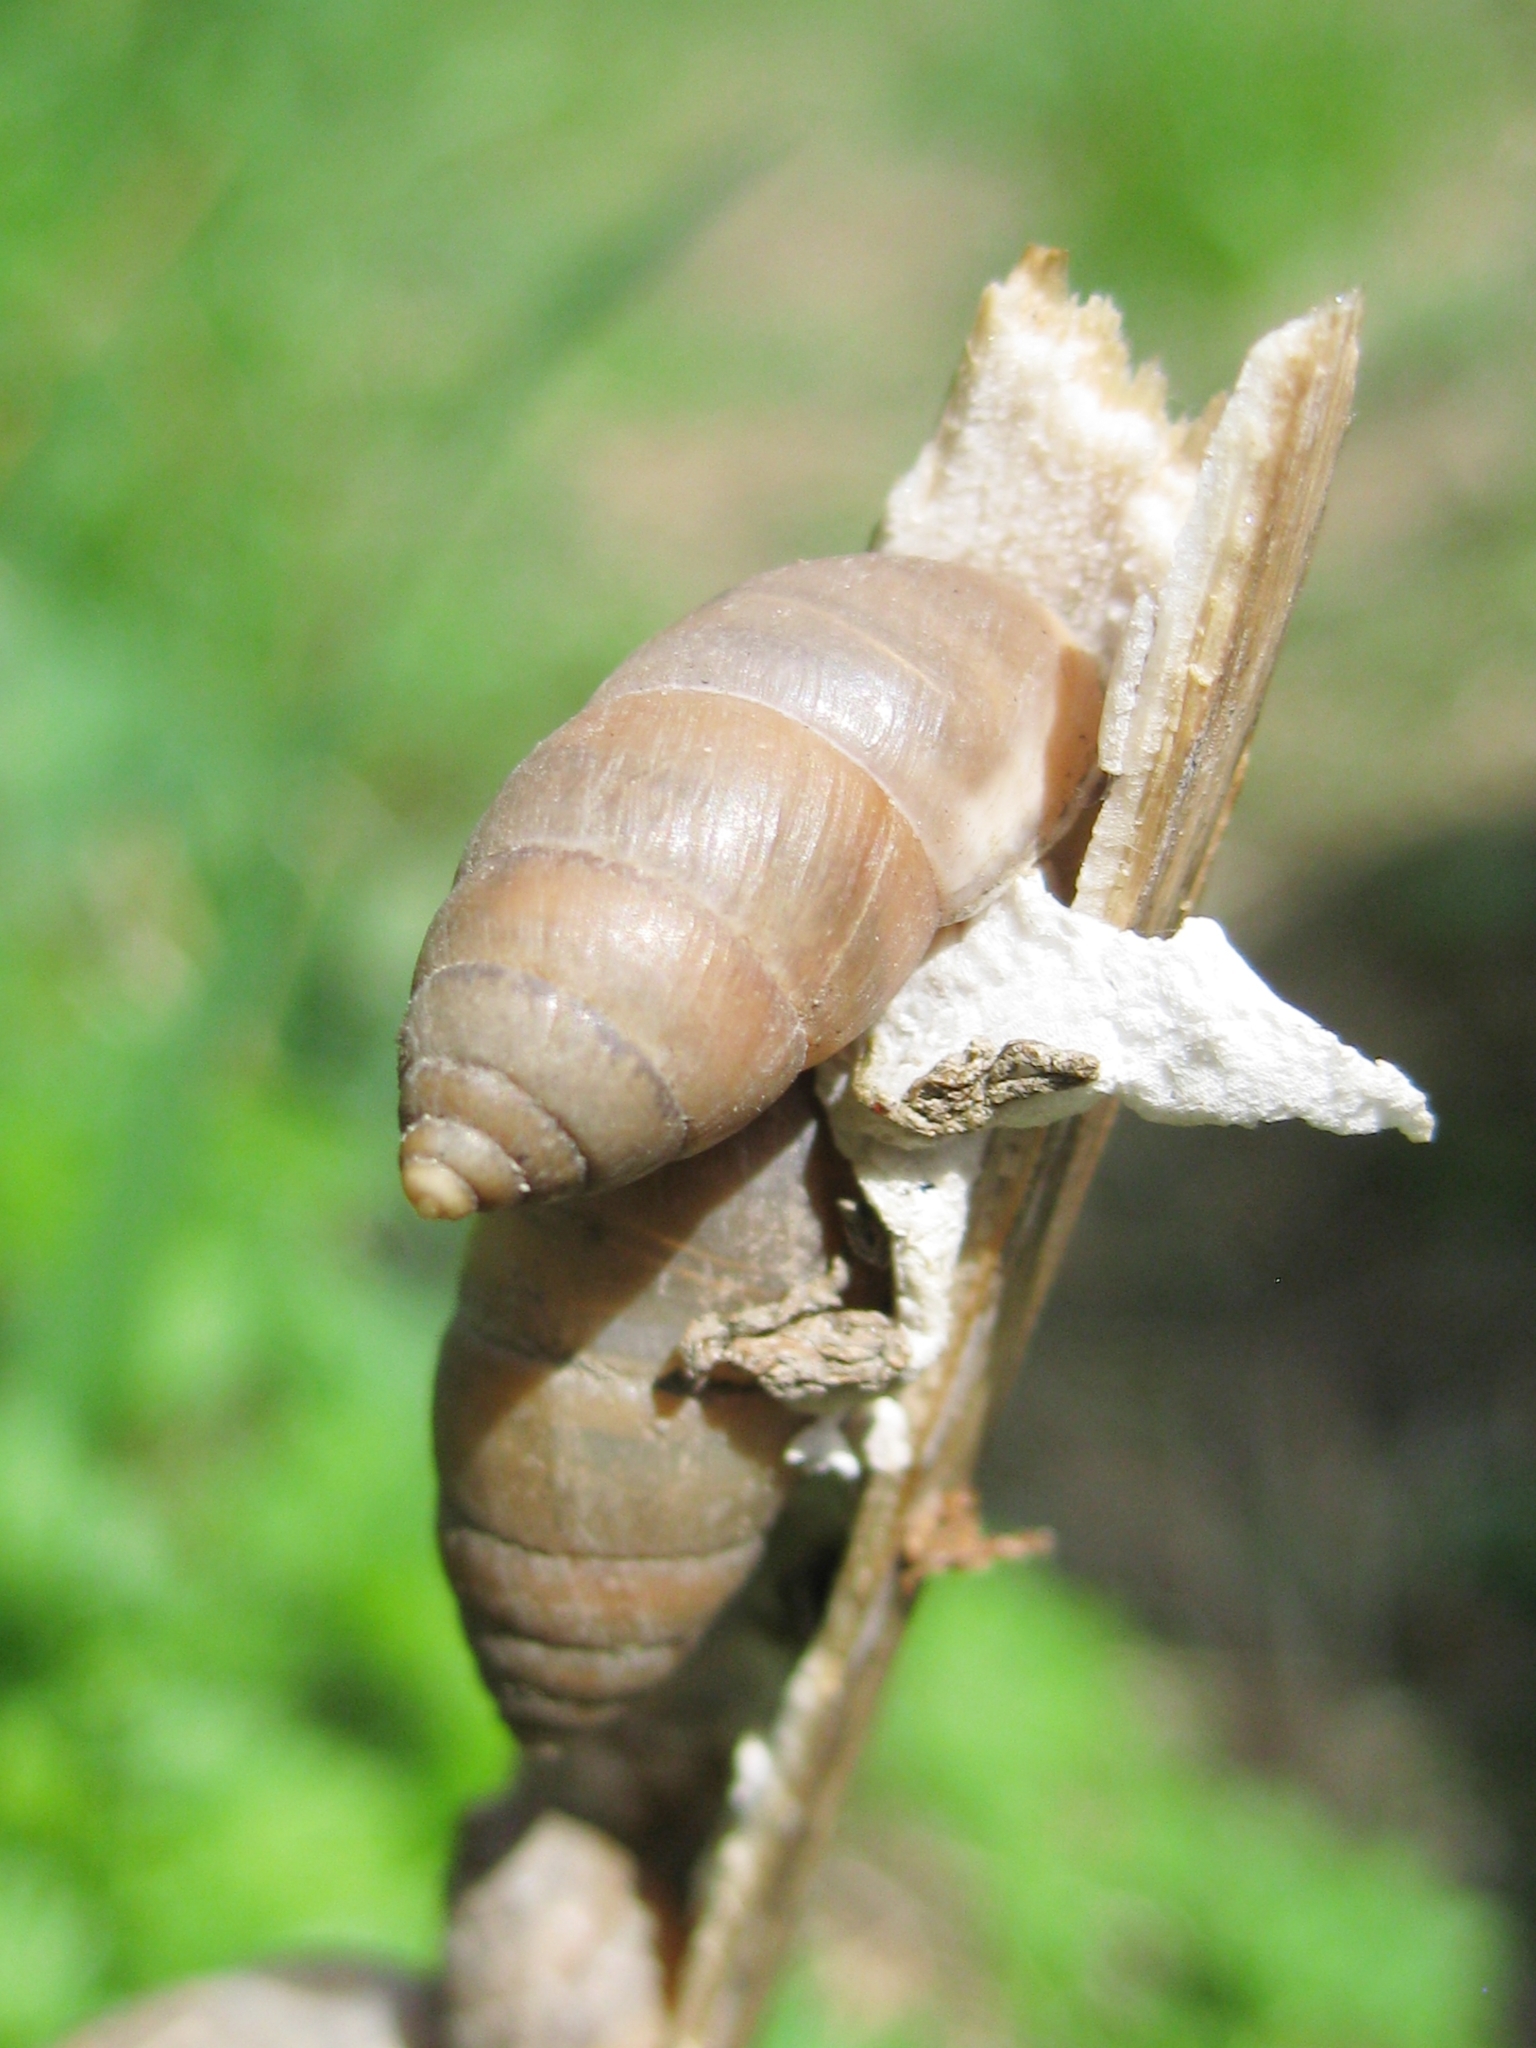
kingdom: Animalia
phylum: Mollusca
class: Gastropoda
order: Stylommatophora
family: Enidae
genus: Chondrula
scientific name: Chondrula tridens
